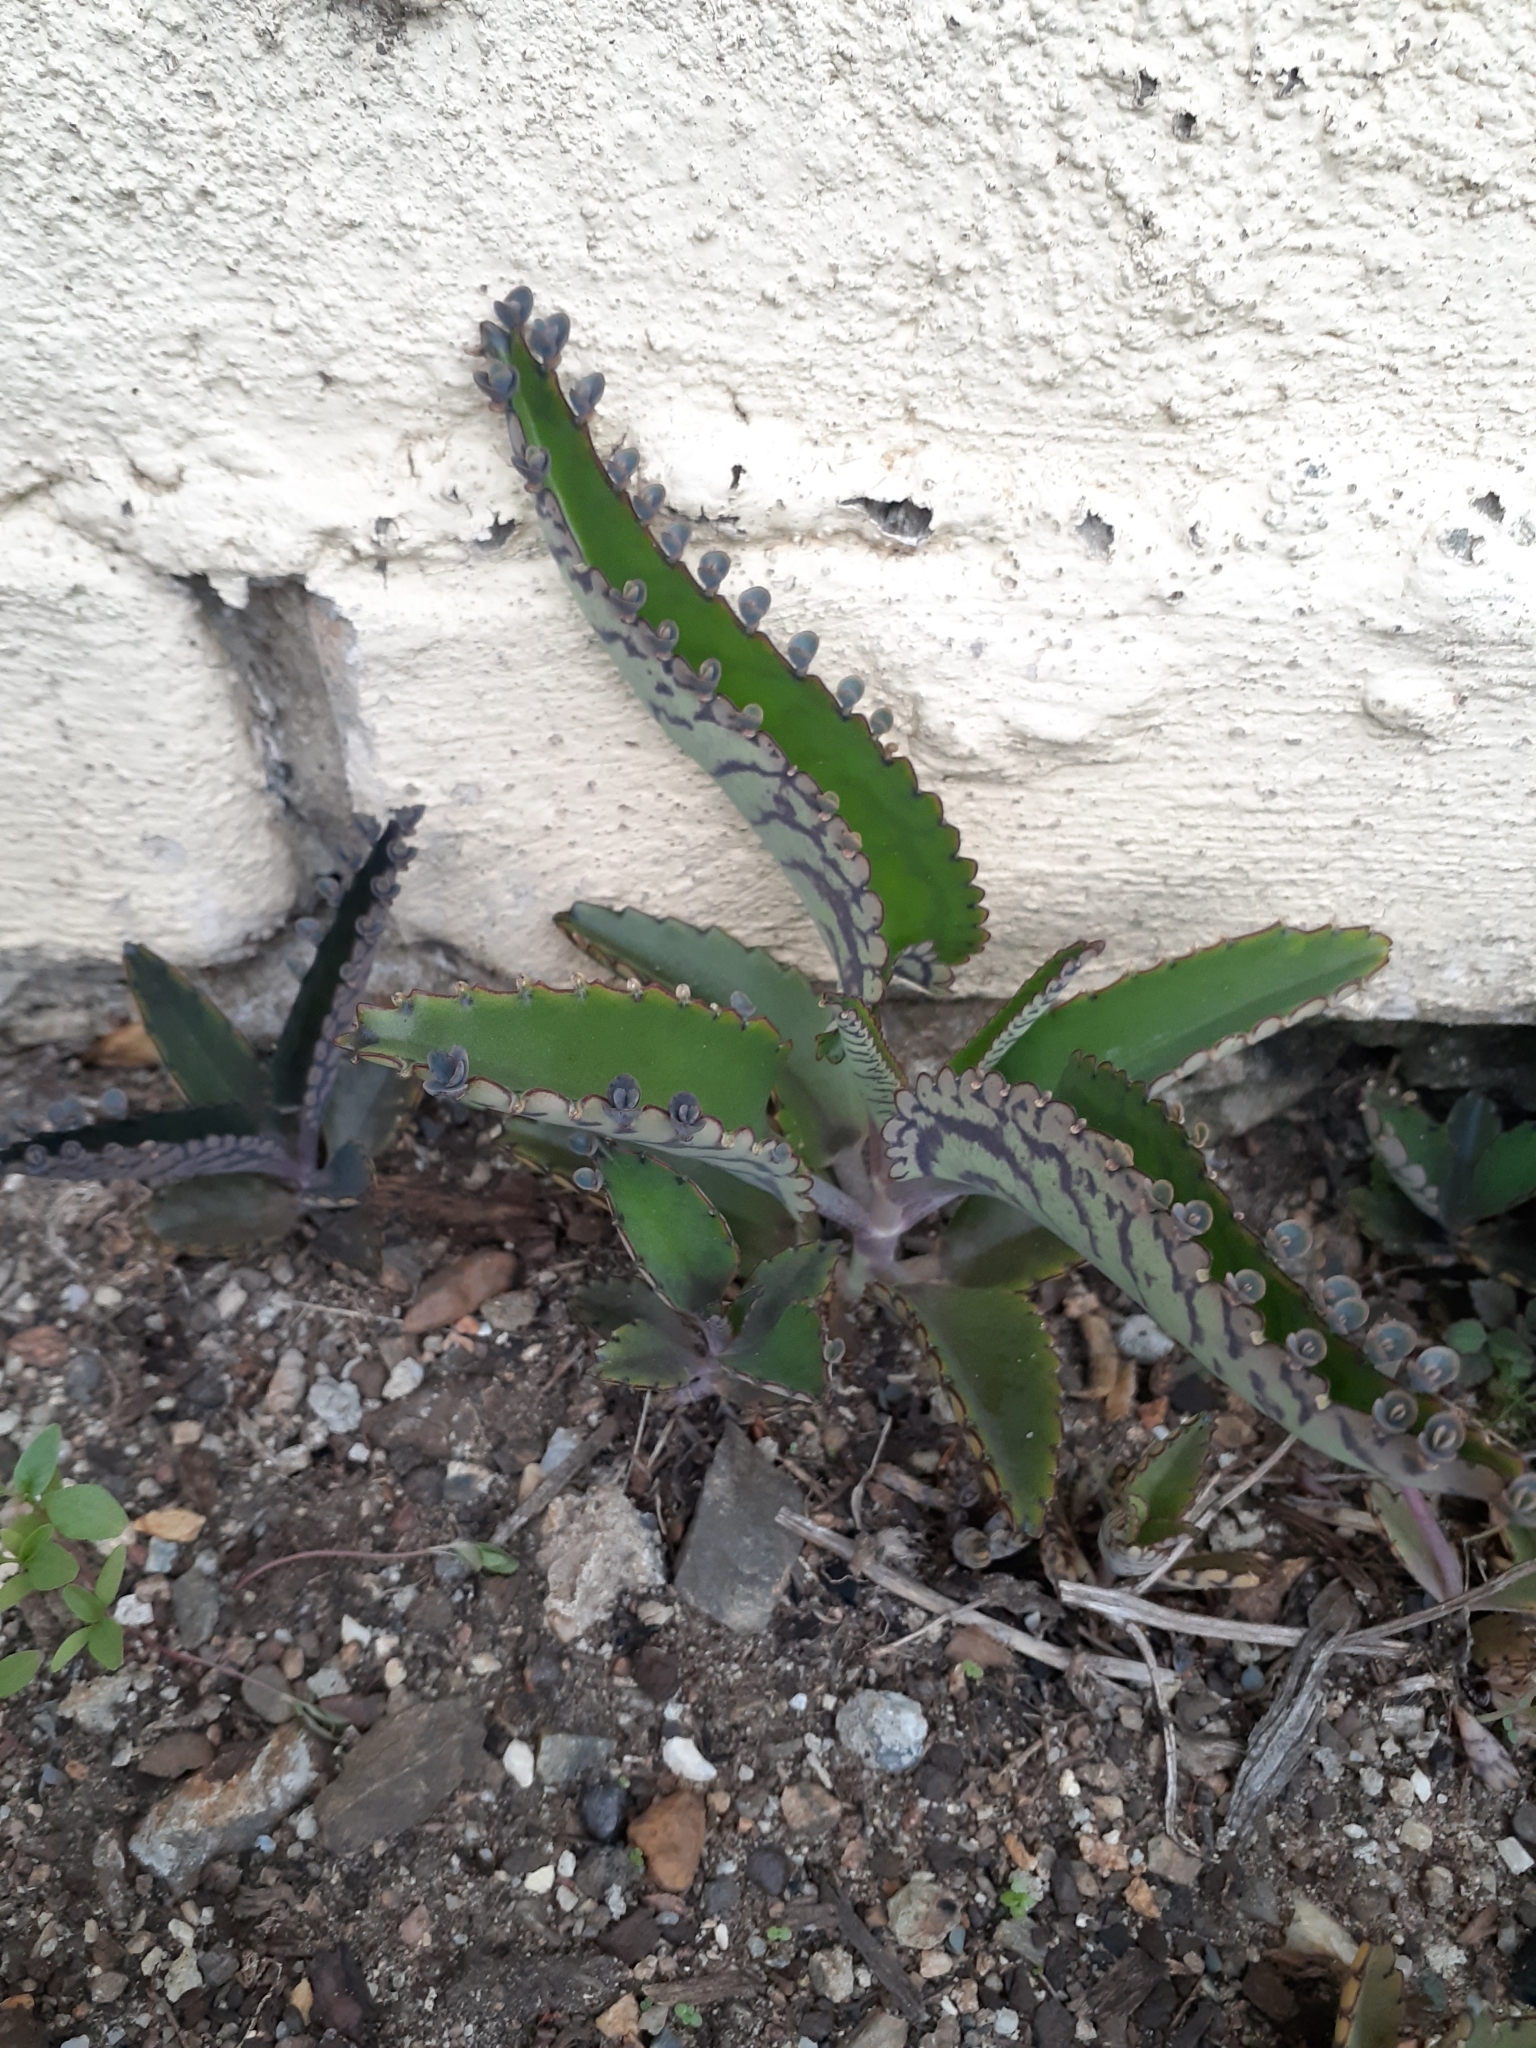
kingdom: Plantae
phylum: Tracheophyta
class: Magnoliopsida
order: Saxifragales
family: Crassulaceae
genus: Kalanchoe
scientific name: Kalanchoe daigremontiana
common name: Devil's backbone
